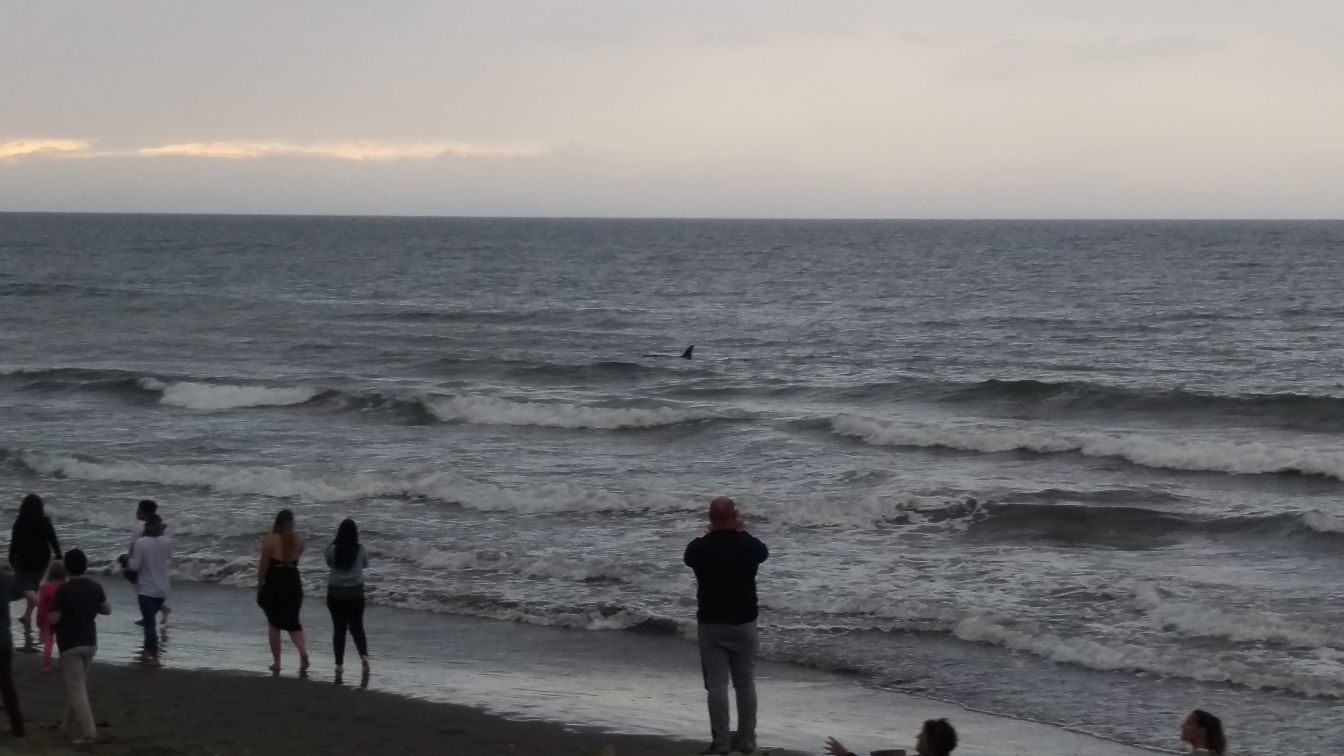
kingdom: Animalia
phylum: Chordata
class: Mammalia
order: Cetacea
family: Delphinidae
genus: Orcinus
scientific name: Orcinus orca
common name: Killer whale
